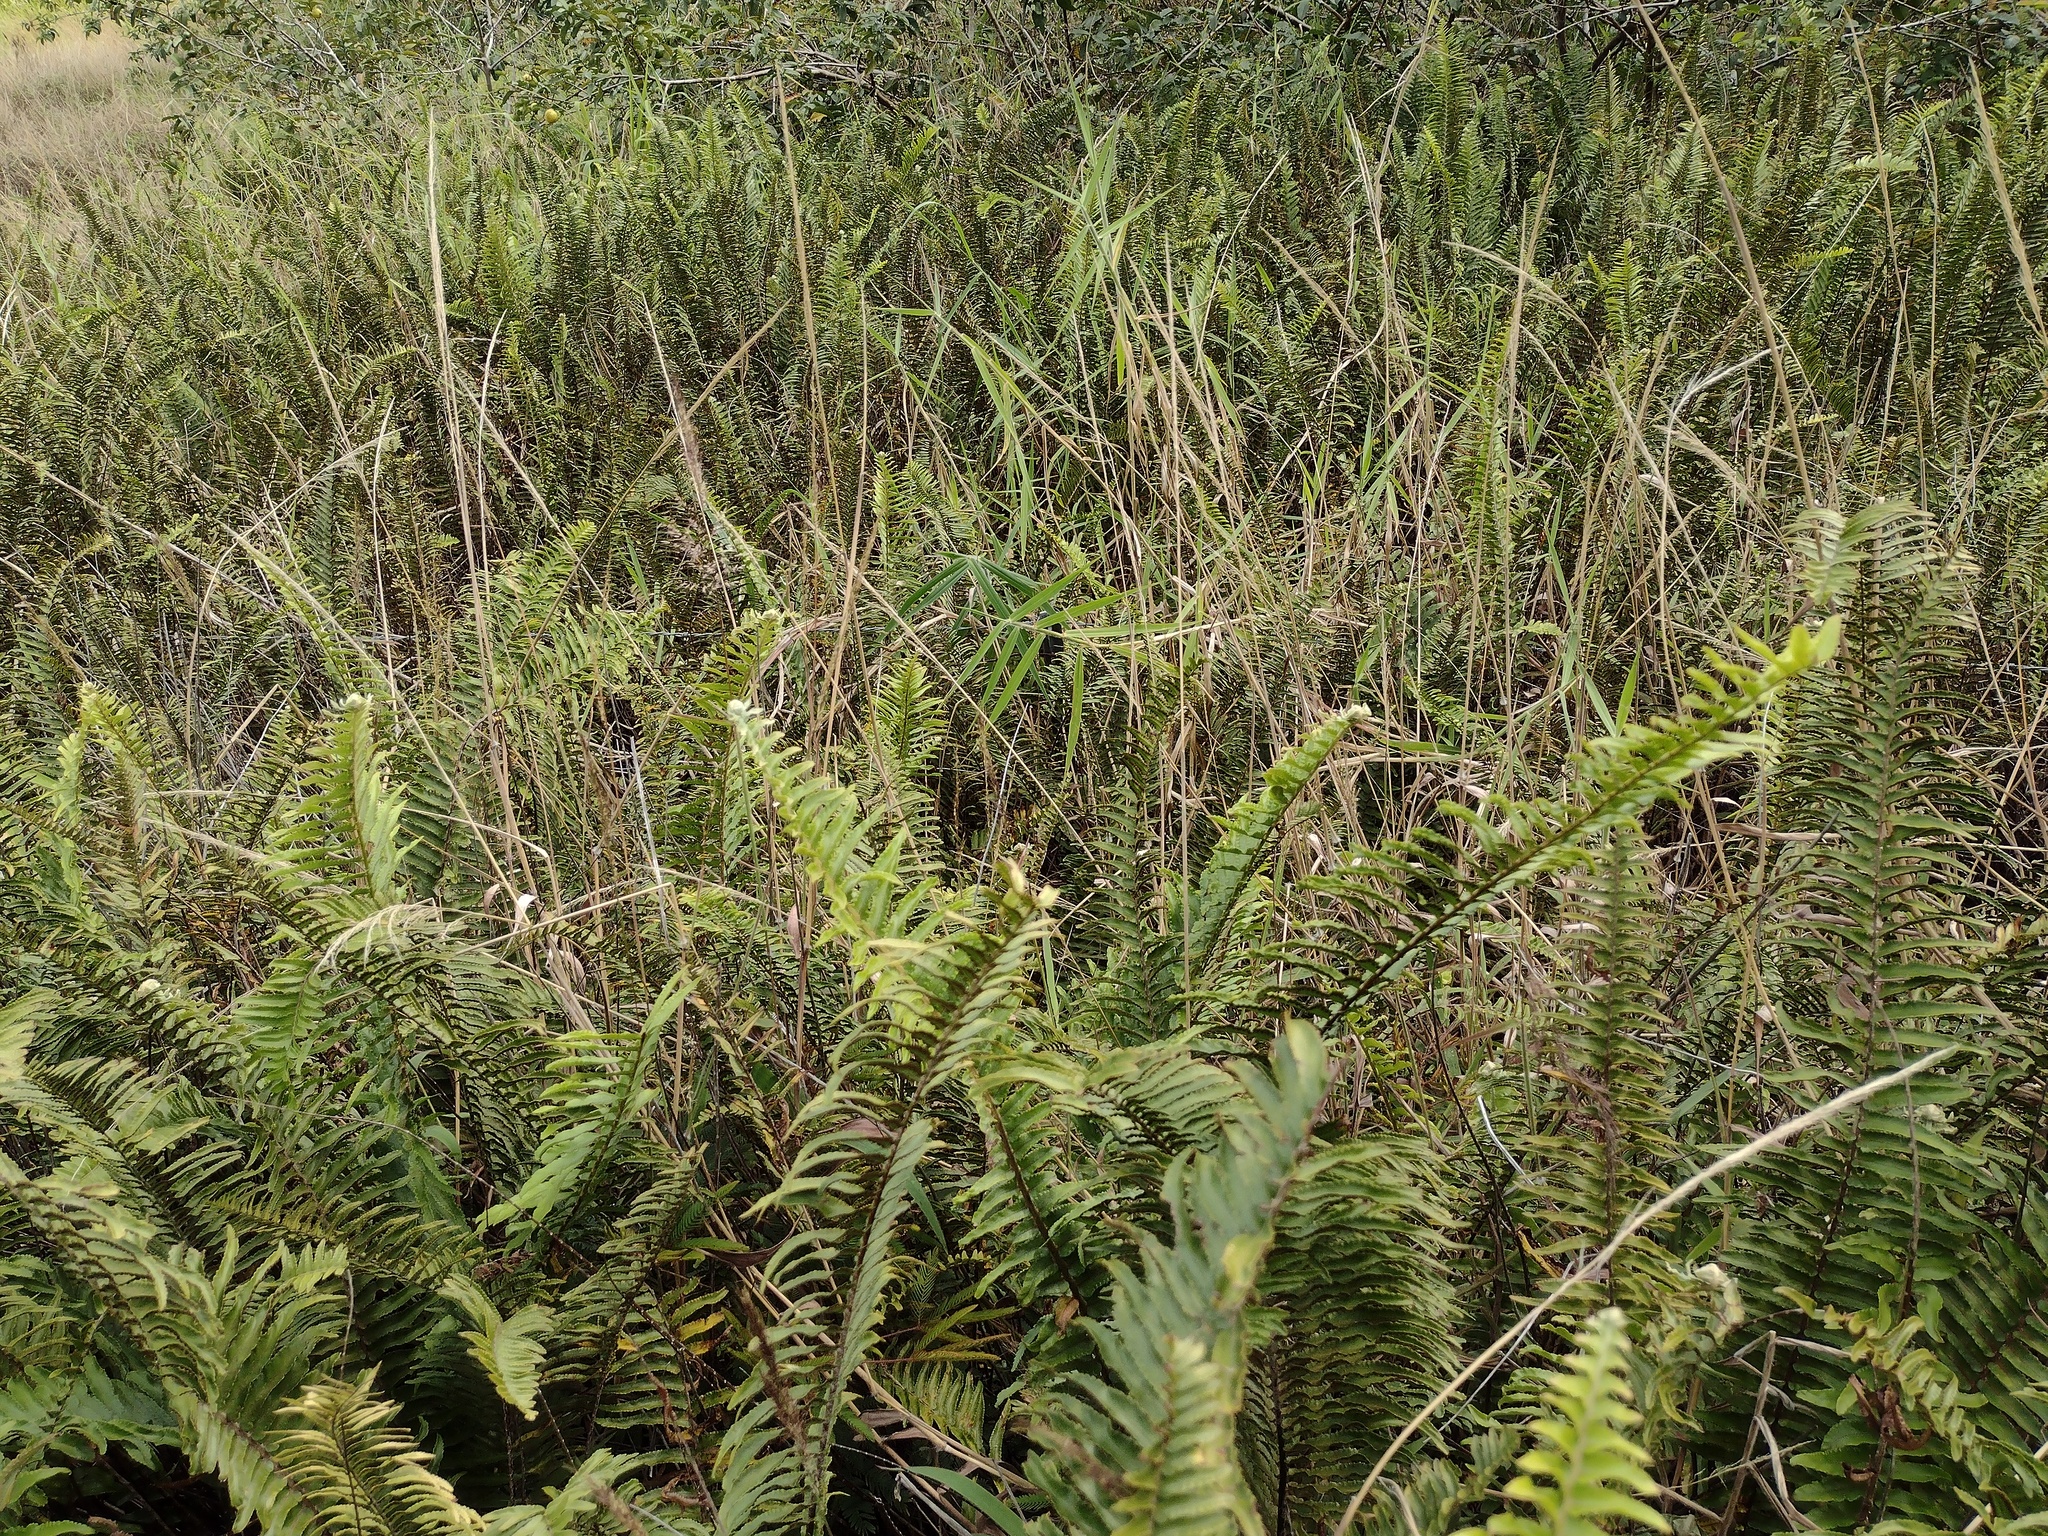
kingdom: Plantae
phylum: Tracheophyta
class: Liliopsida
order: Poales
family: Poaceae
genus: Urochloa
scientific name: Urochloa mutica
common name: Para grass
